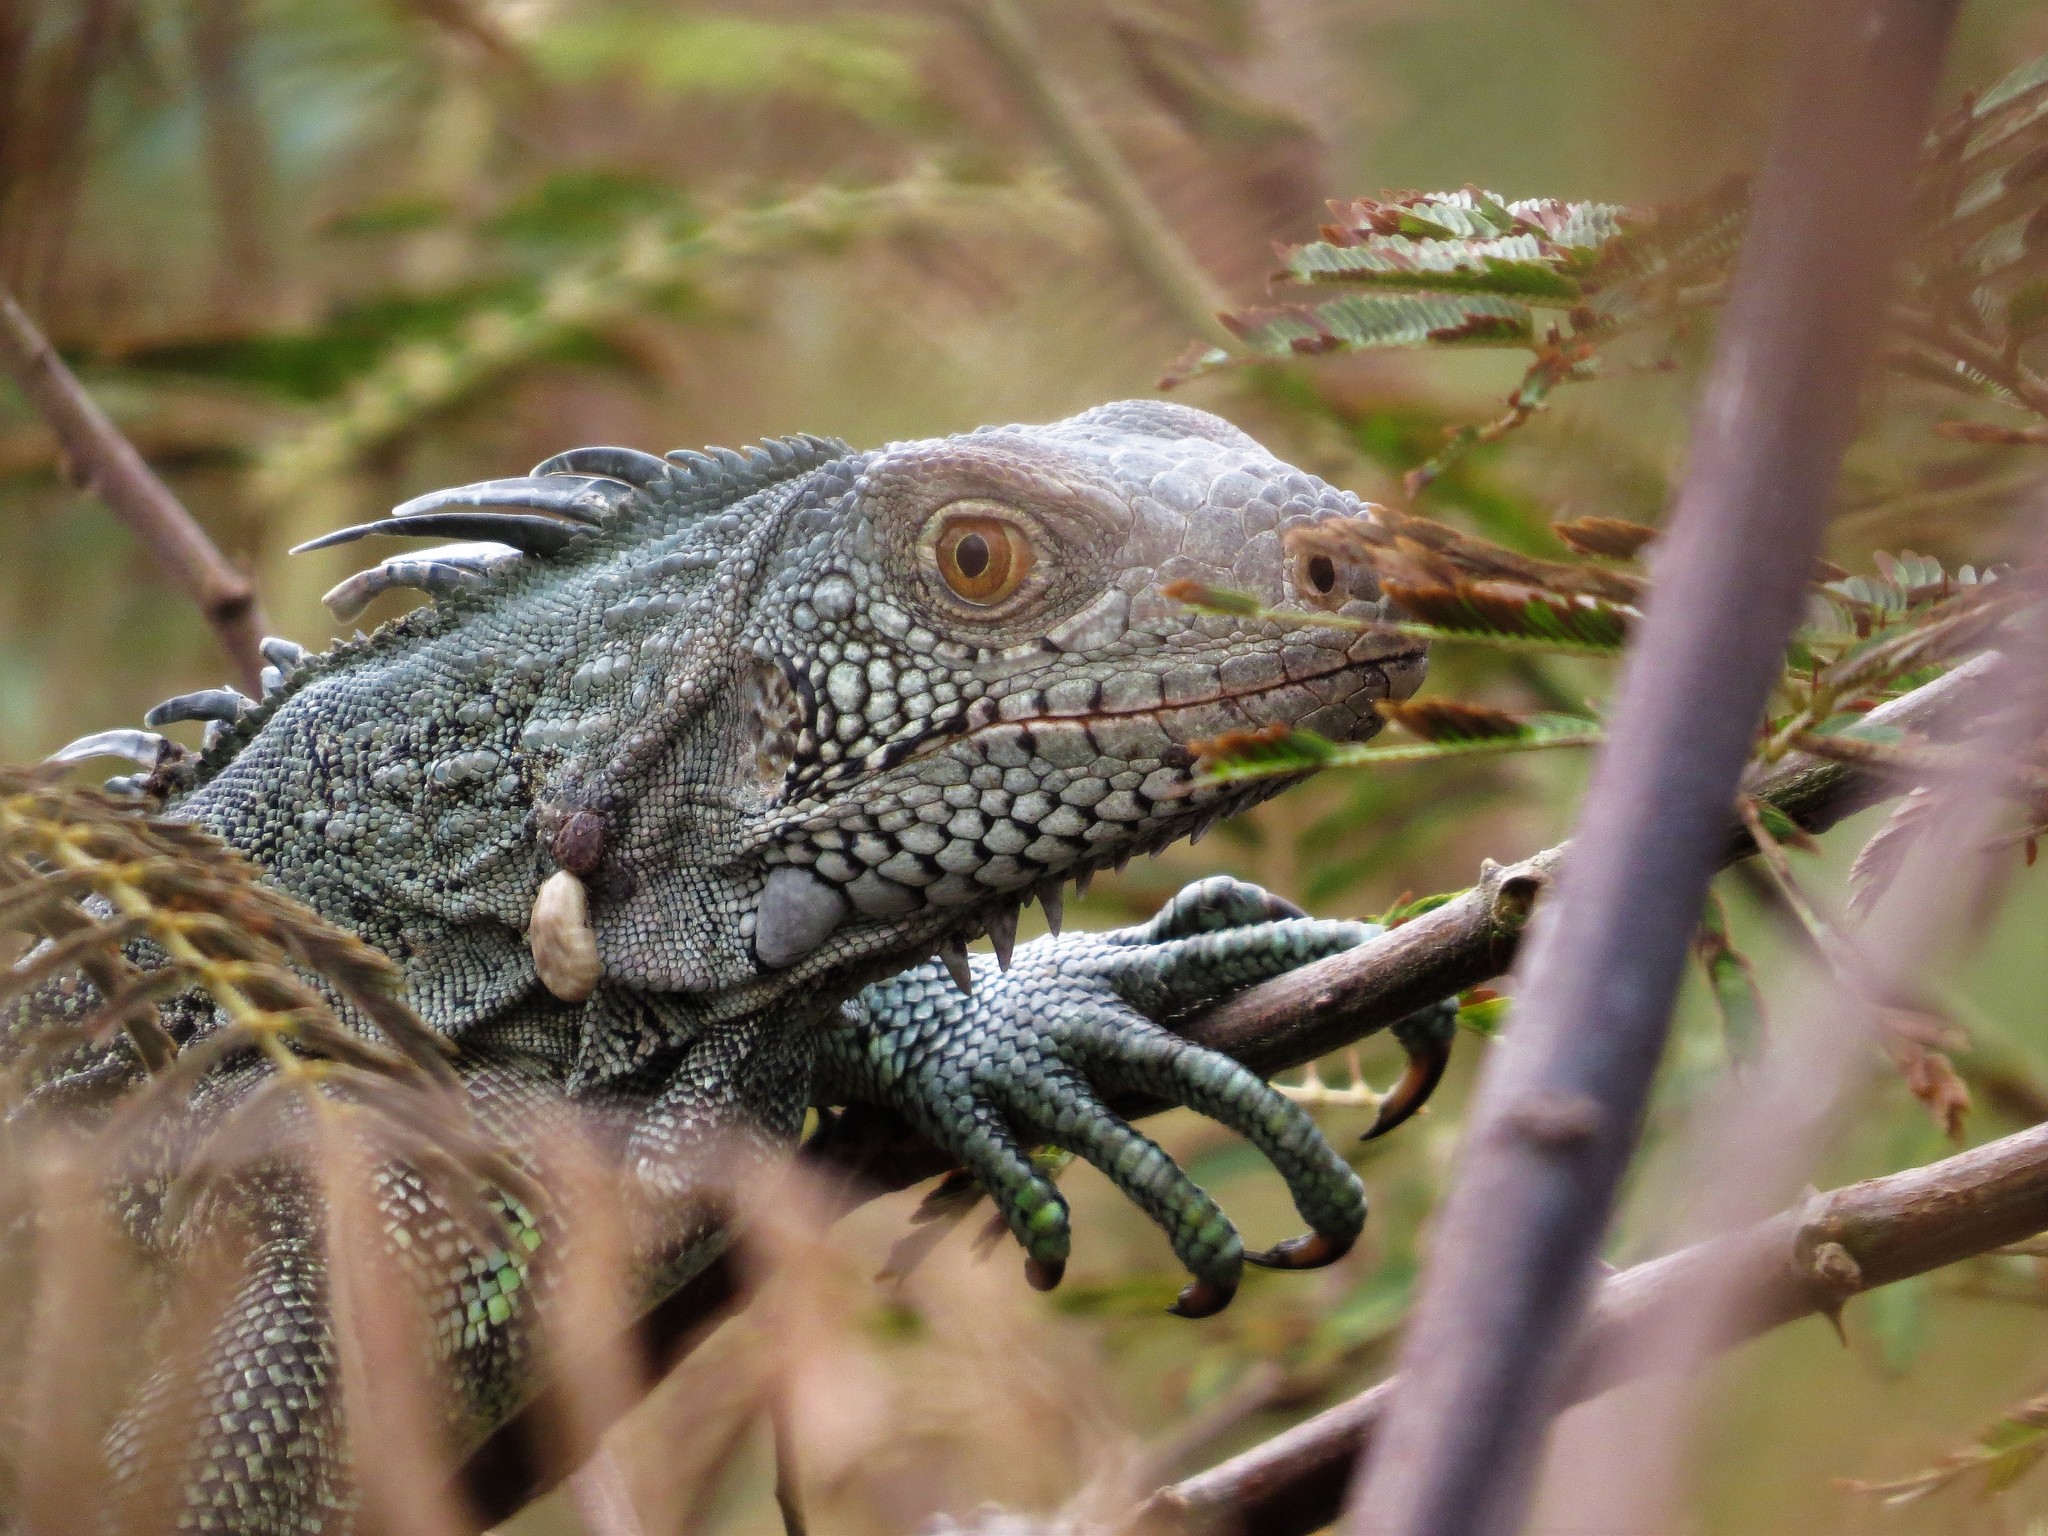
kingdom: Animalia
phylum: Chordata
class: Squamata
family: Iguanidae
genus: Iguana
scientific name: Iguana iguana
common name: Green iguana
